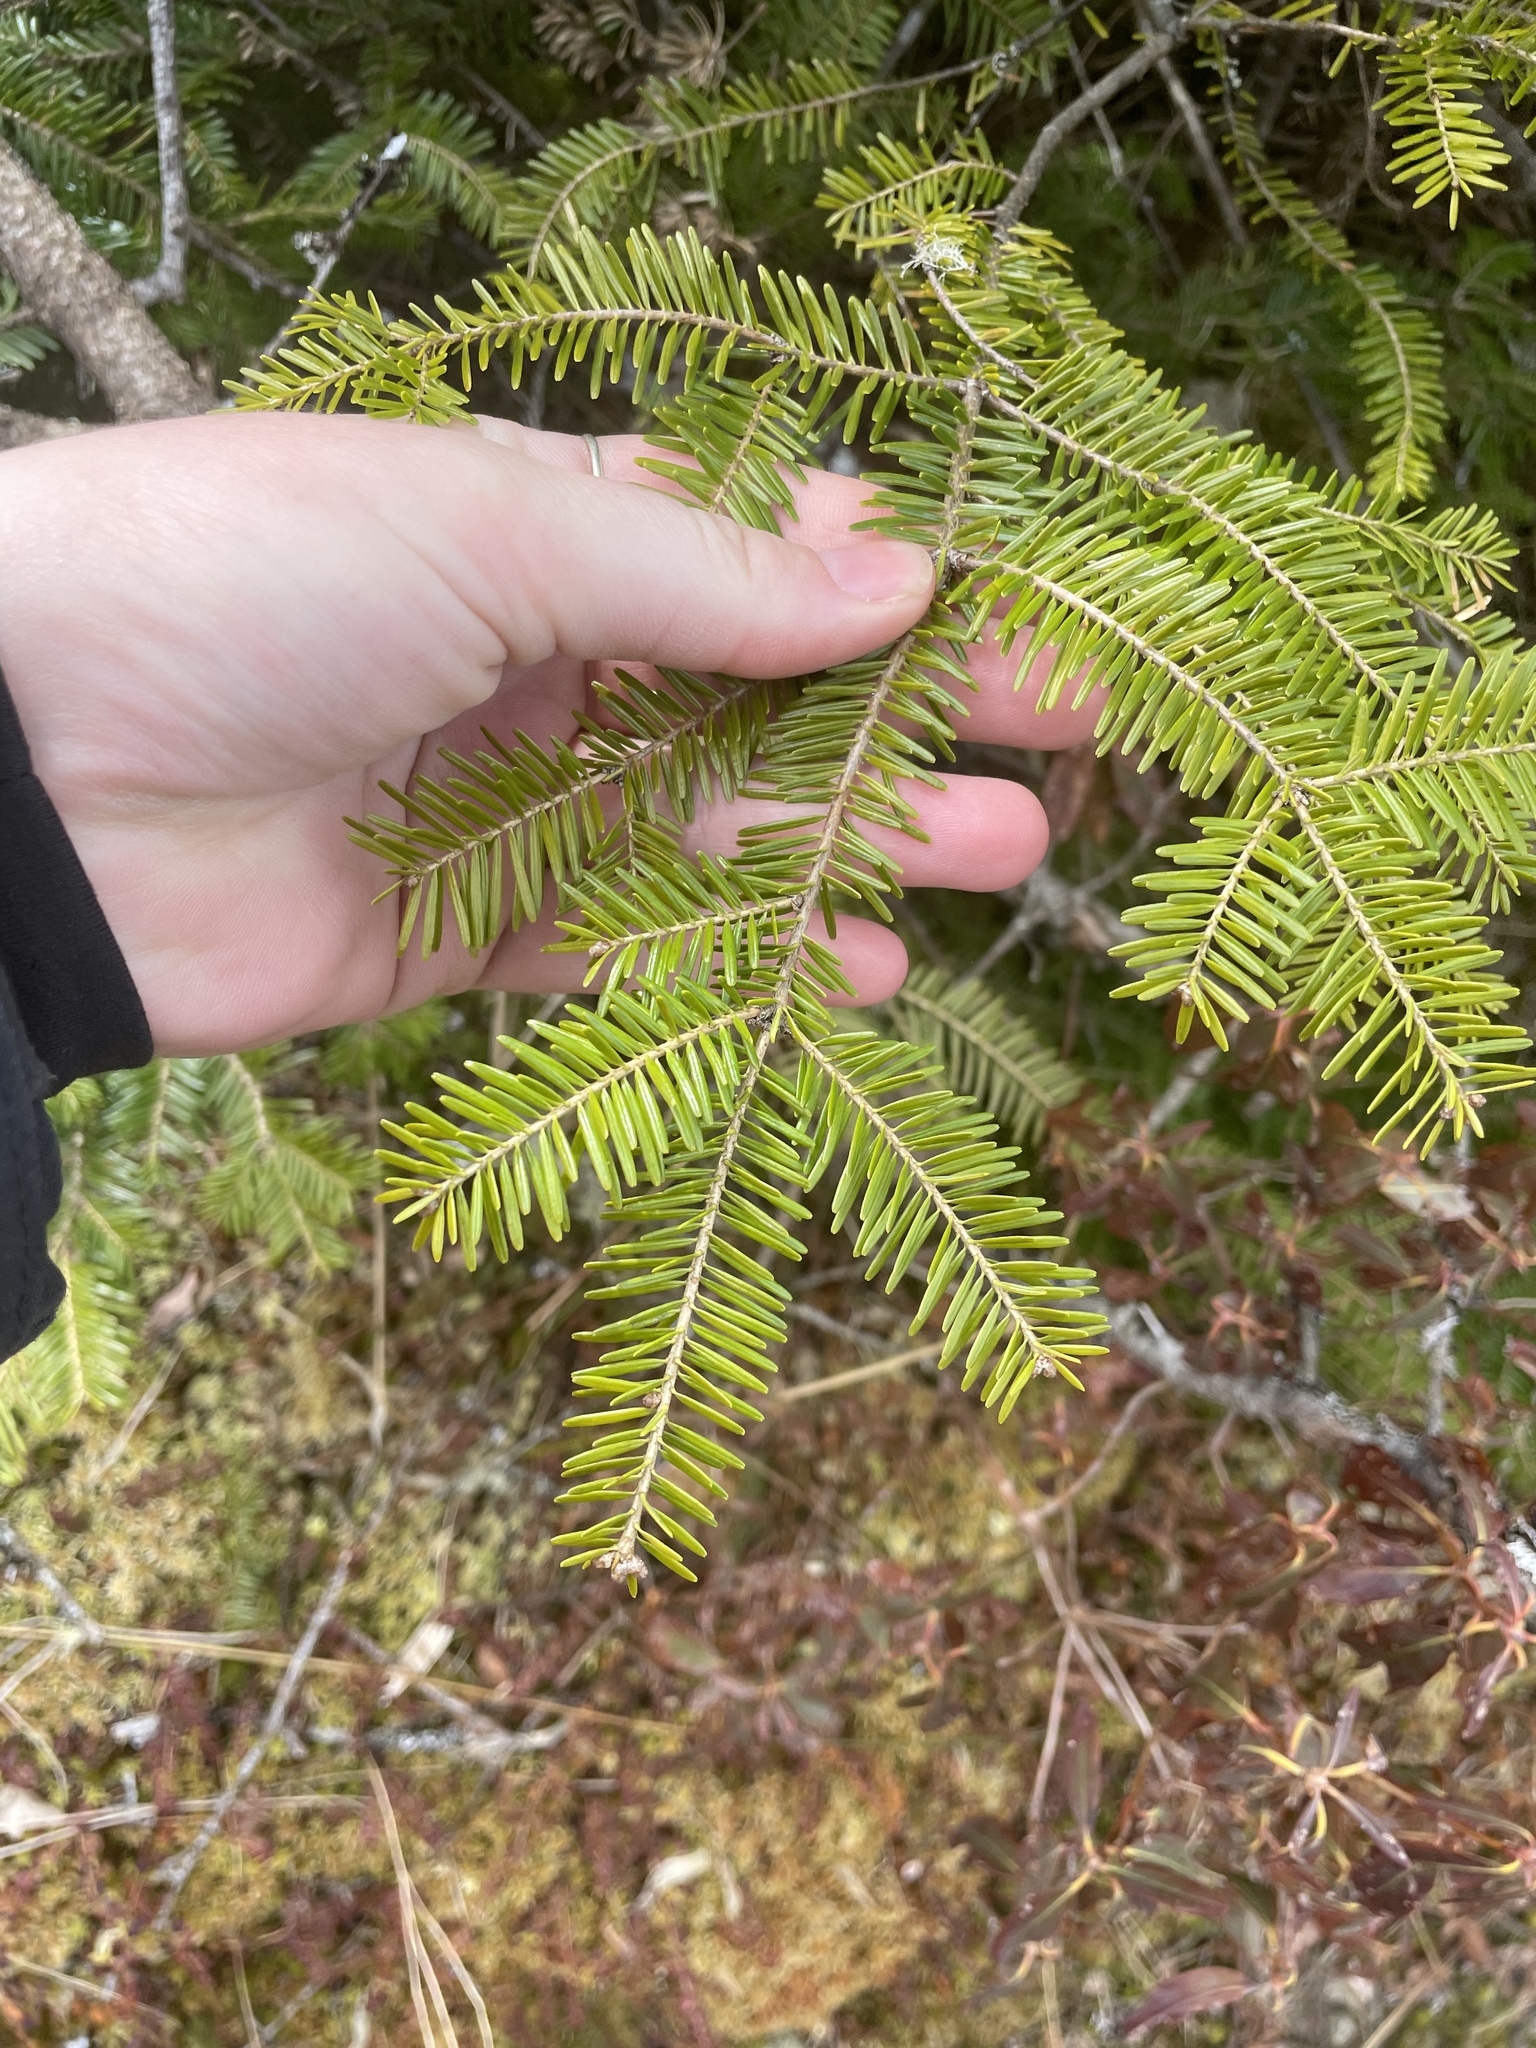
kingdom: Plantae
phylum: Tracheophyta
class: Pinopsida
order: Pinales
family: Pinaceae
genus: Abies
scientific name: Abies balsamea
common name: Balsam fir
